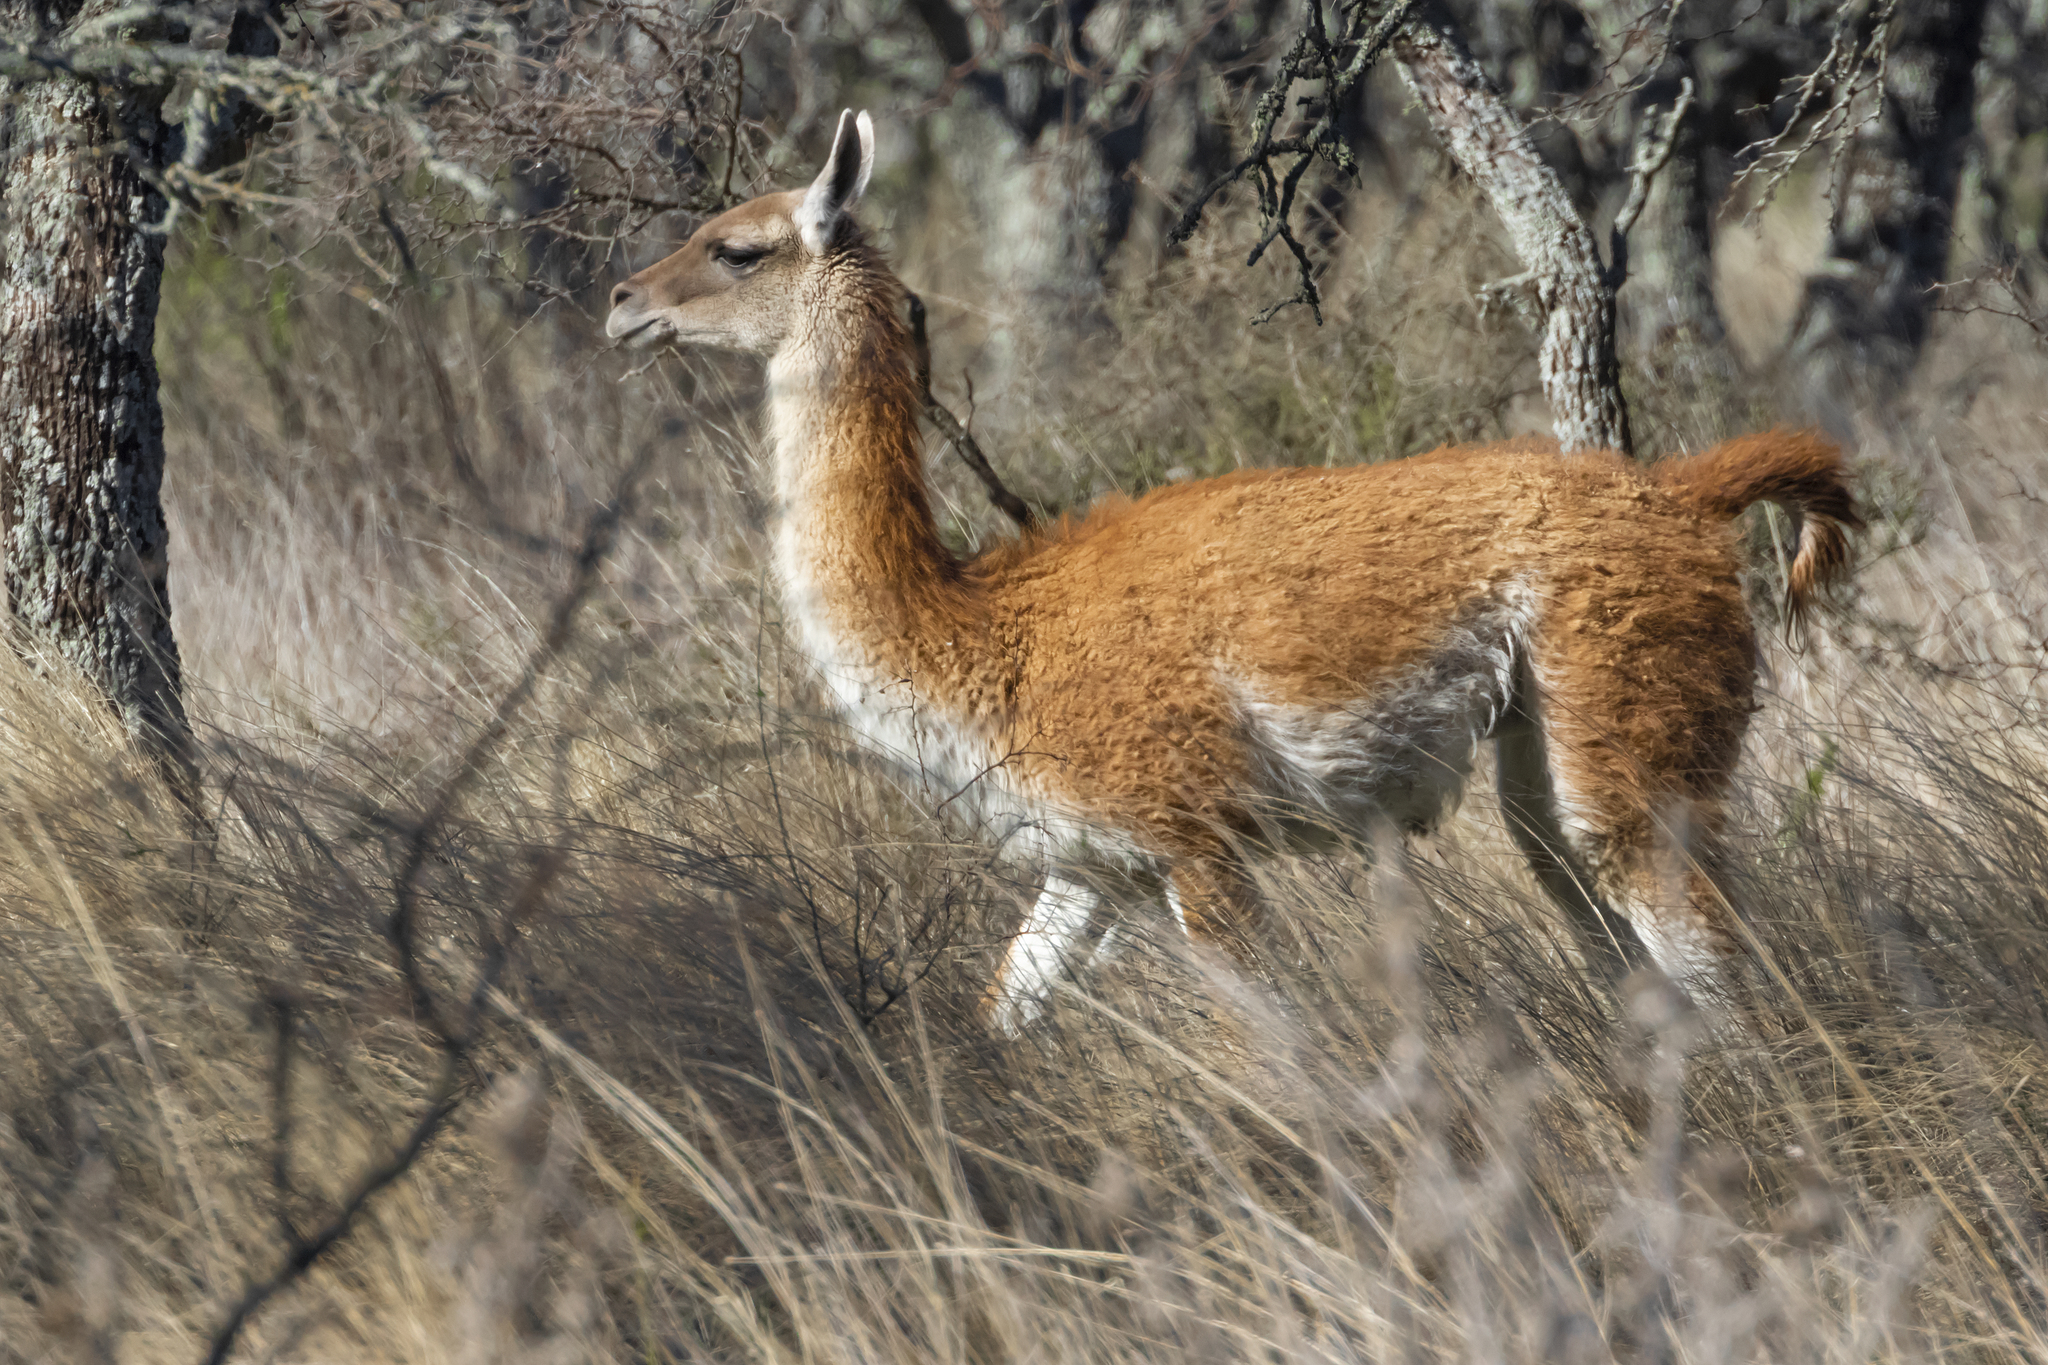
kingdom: Animalia
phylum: Chordata
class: Mammalia
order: Artiodactyla
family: Camelidae
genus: Lama
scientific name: Lama glama
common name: Llama
